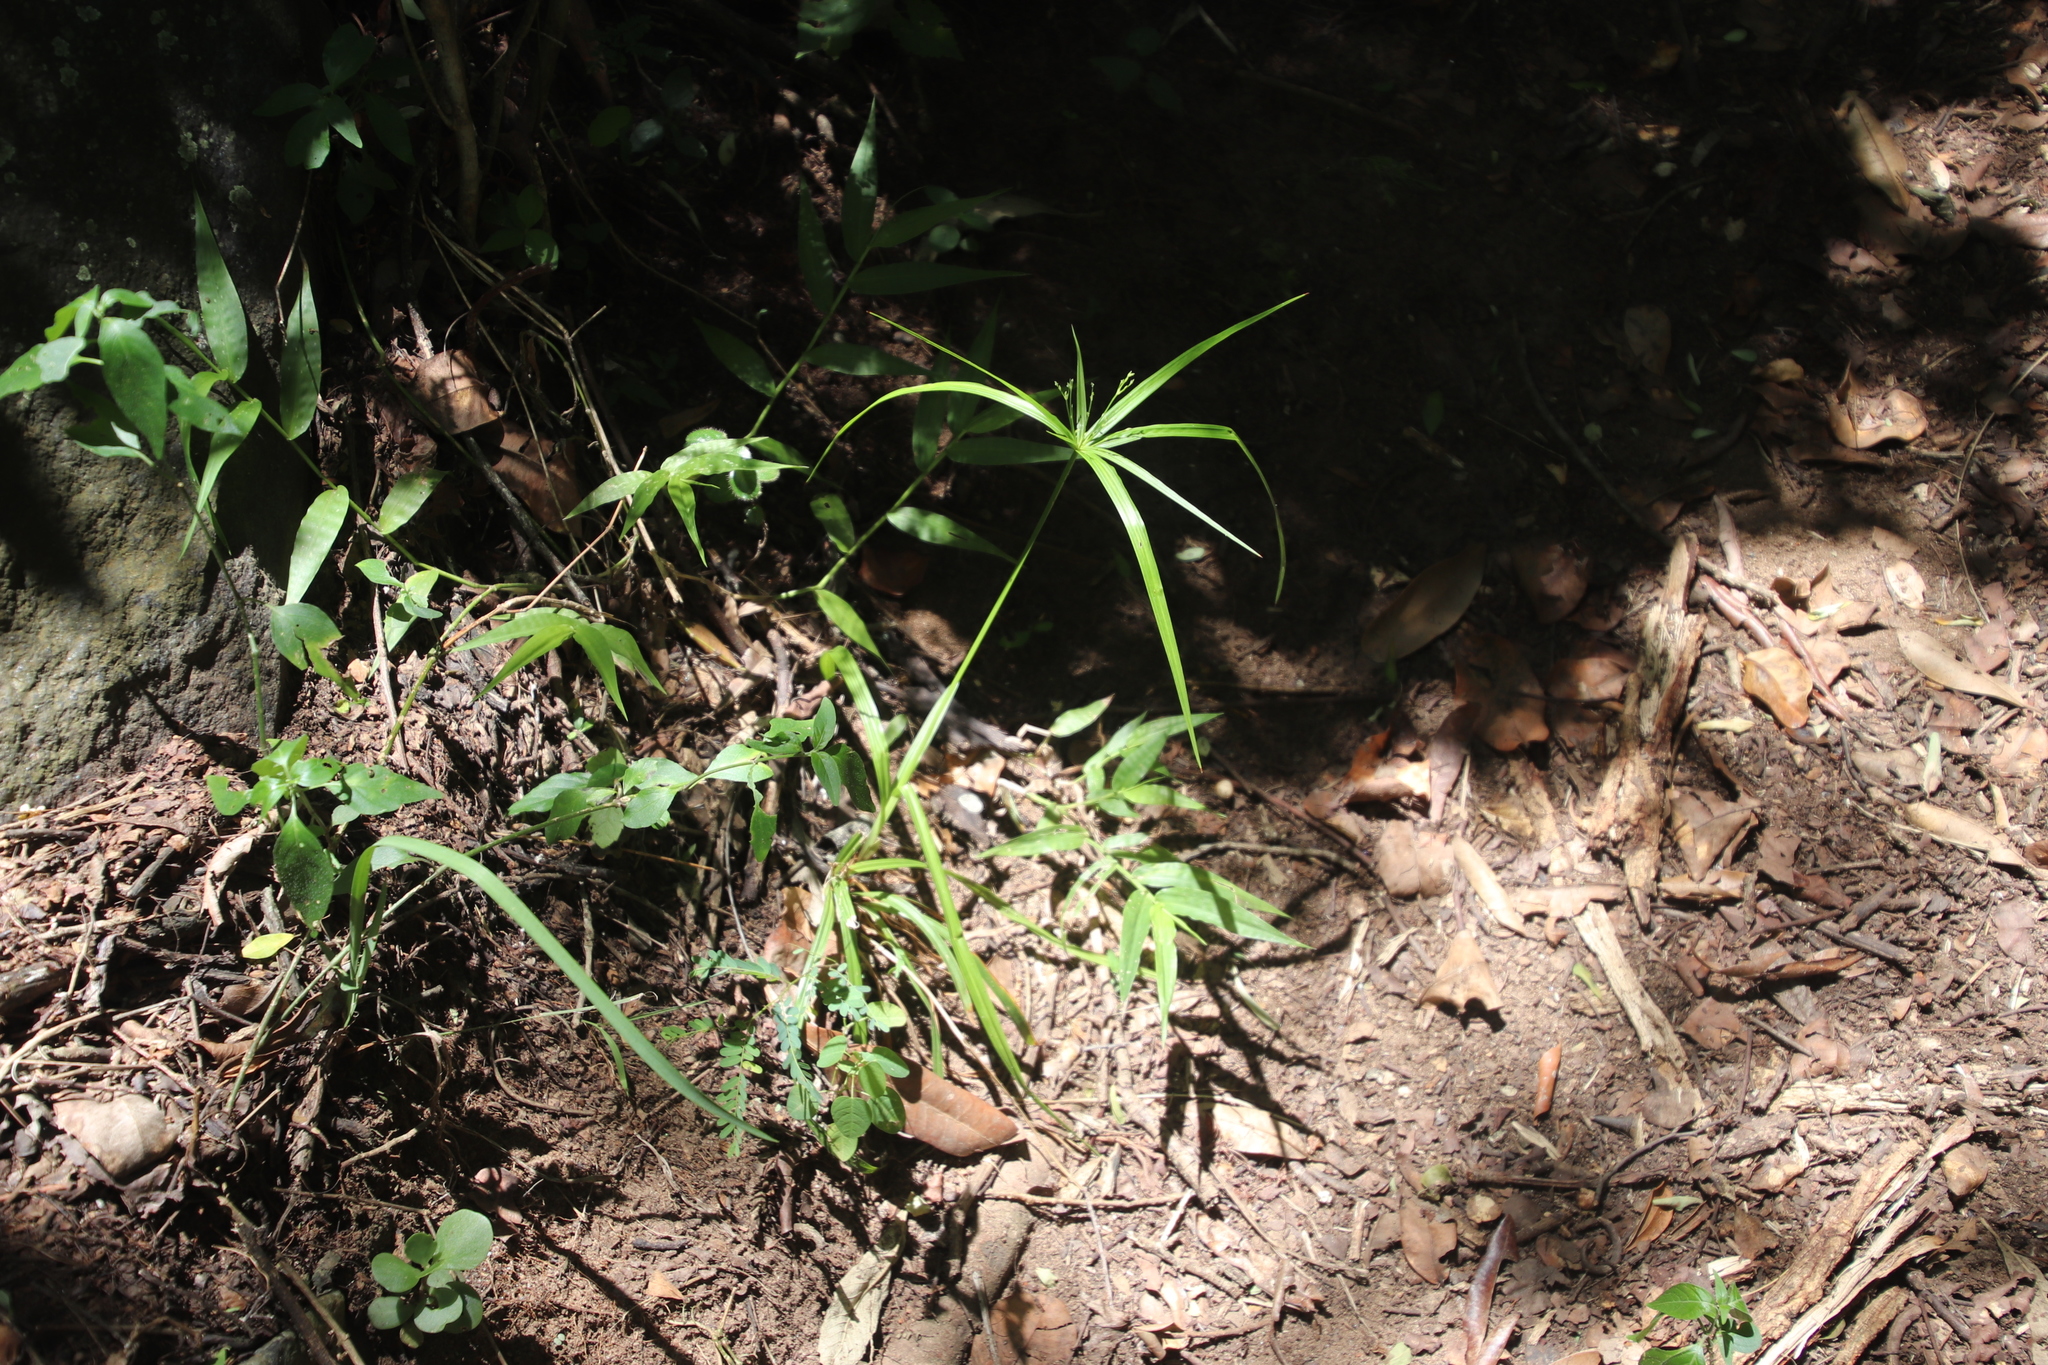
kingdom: Plantae
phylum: Tracheophyta
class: Liliopsida
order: Poales
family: Cyperaceae
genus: Cyperus
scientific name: Cyperus albostriatus
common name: Dwarf umbrella-grass
